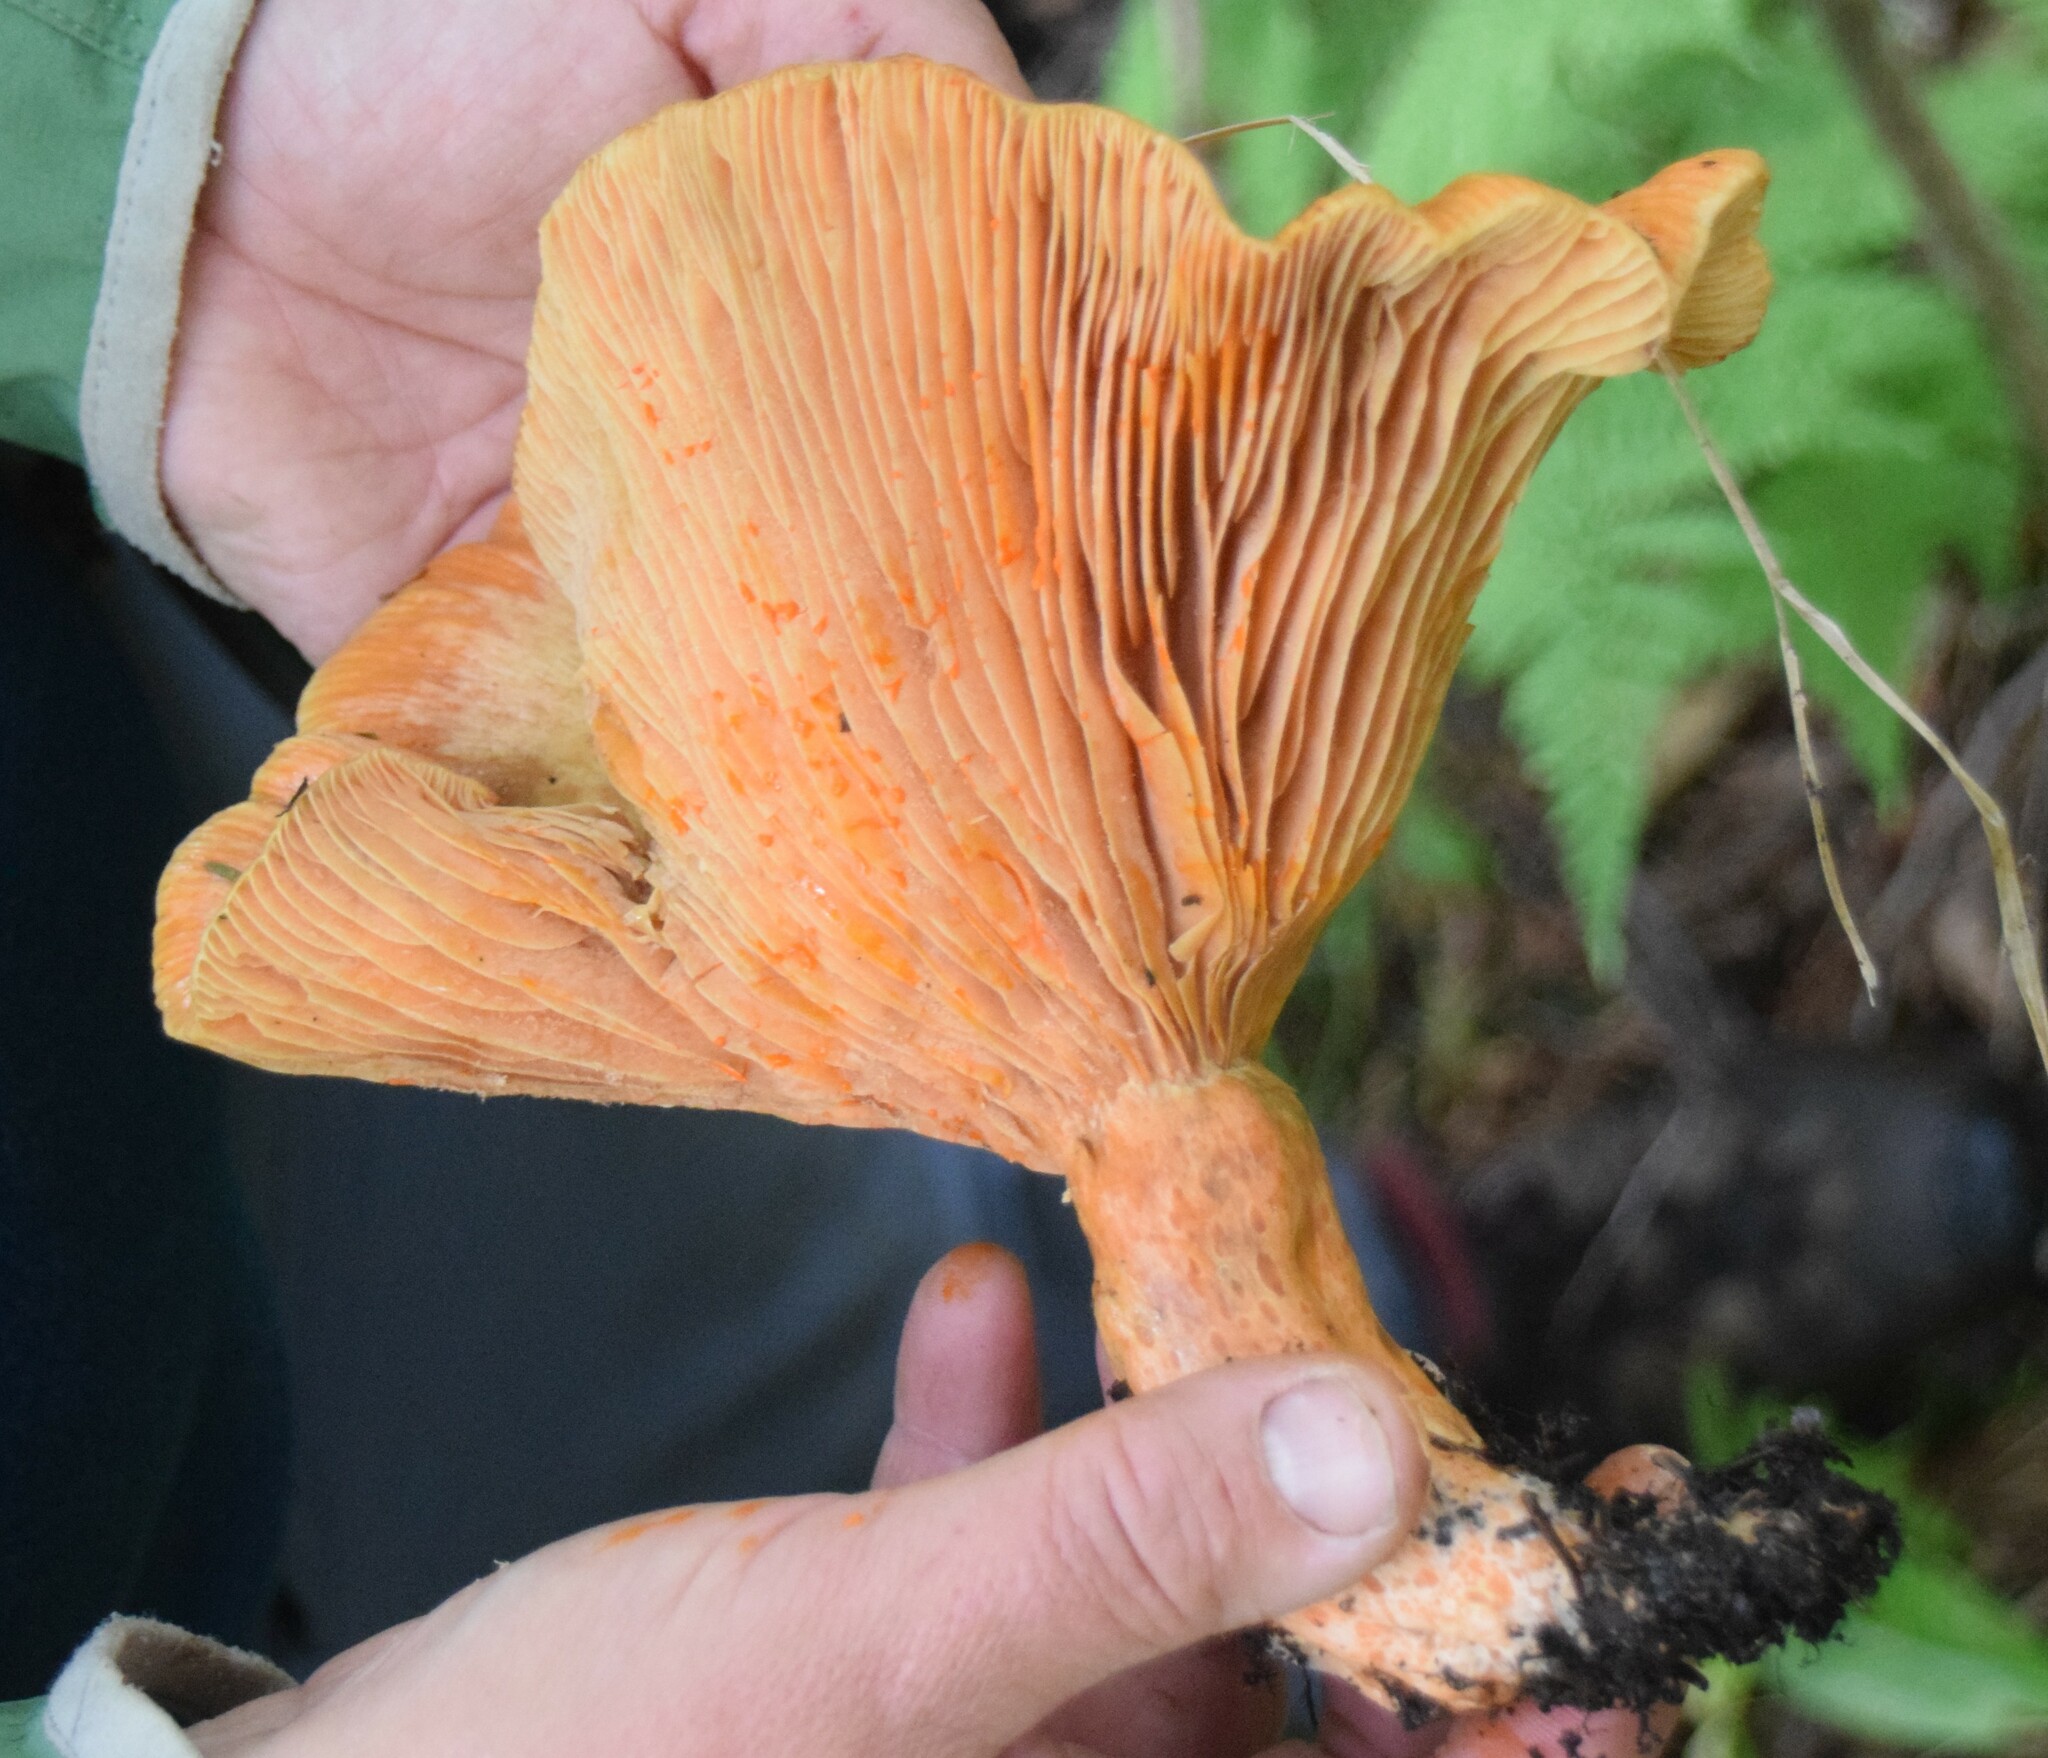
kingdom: Fungi
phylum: Basidiomycota
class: Agaricomycetes
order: Russulales
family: Russulaceae
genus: Lactarius
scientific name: Lactarius salmonicolor
